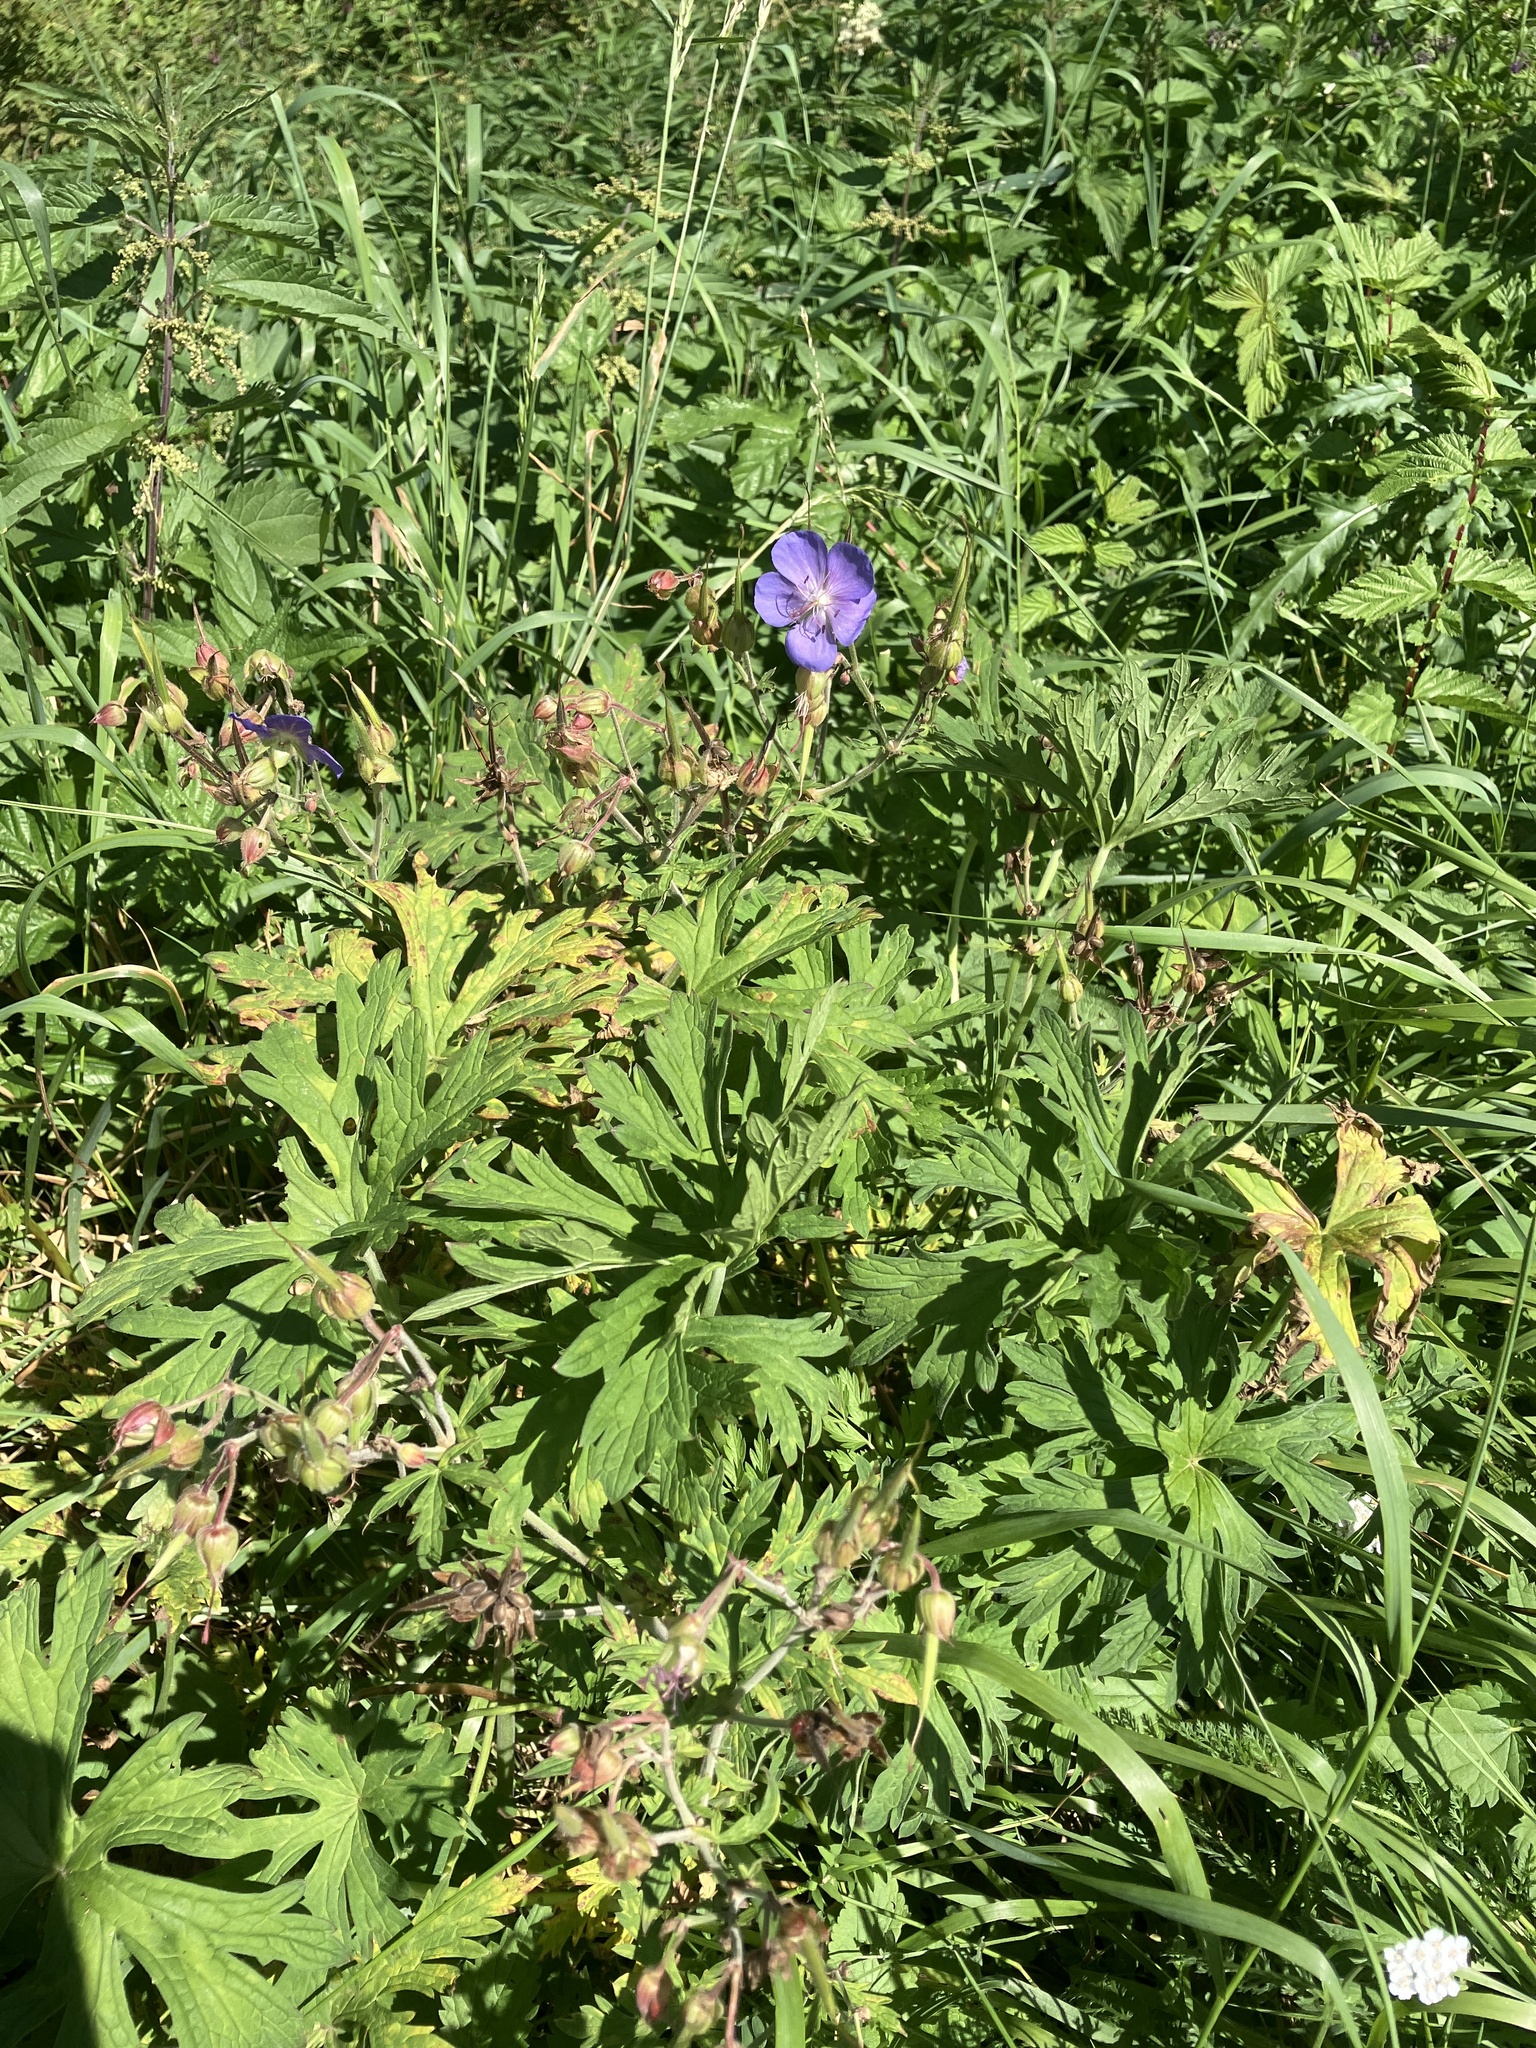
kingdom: Plantae
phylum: Tracheophyta
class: Magnoliopsida
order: Geraniales
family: Geraniaceae
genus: Geranium
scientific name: Geranium pratense
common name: Meadow crane's-bill
